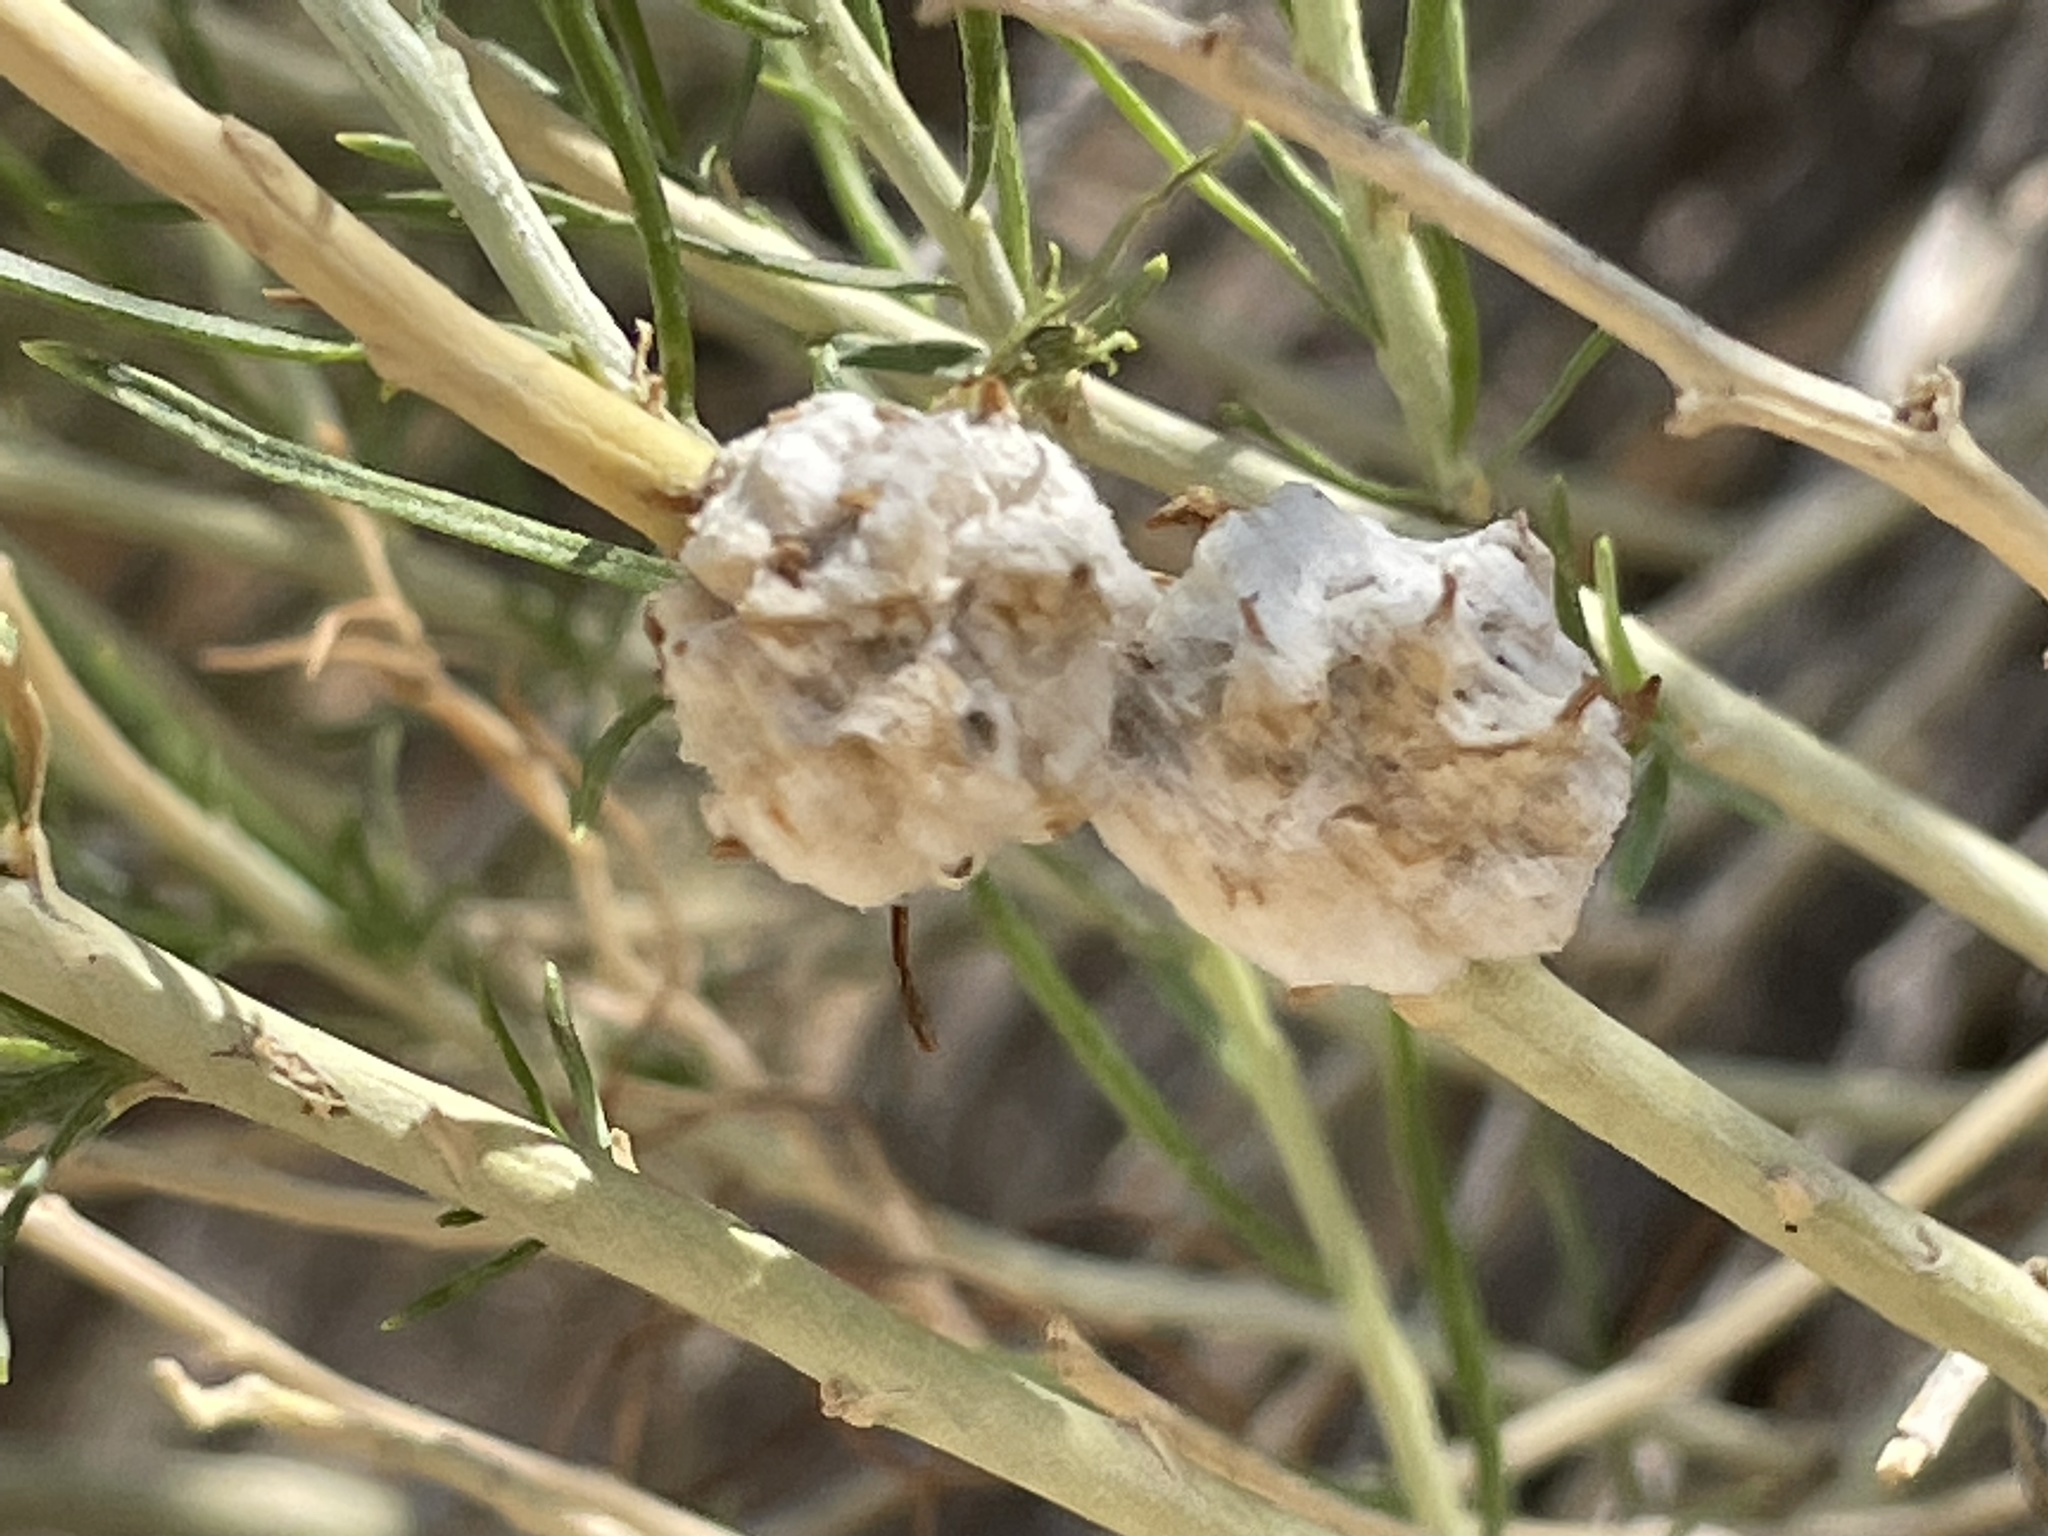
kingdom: Animalia
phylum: Arthropoda
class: Insecta
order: Diptera
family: Tephritidae
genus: Aciurina
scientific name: Aciurina bigeloviae
